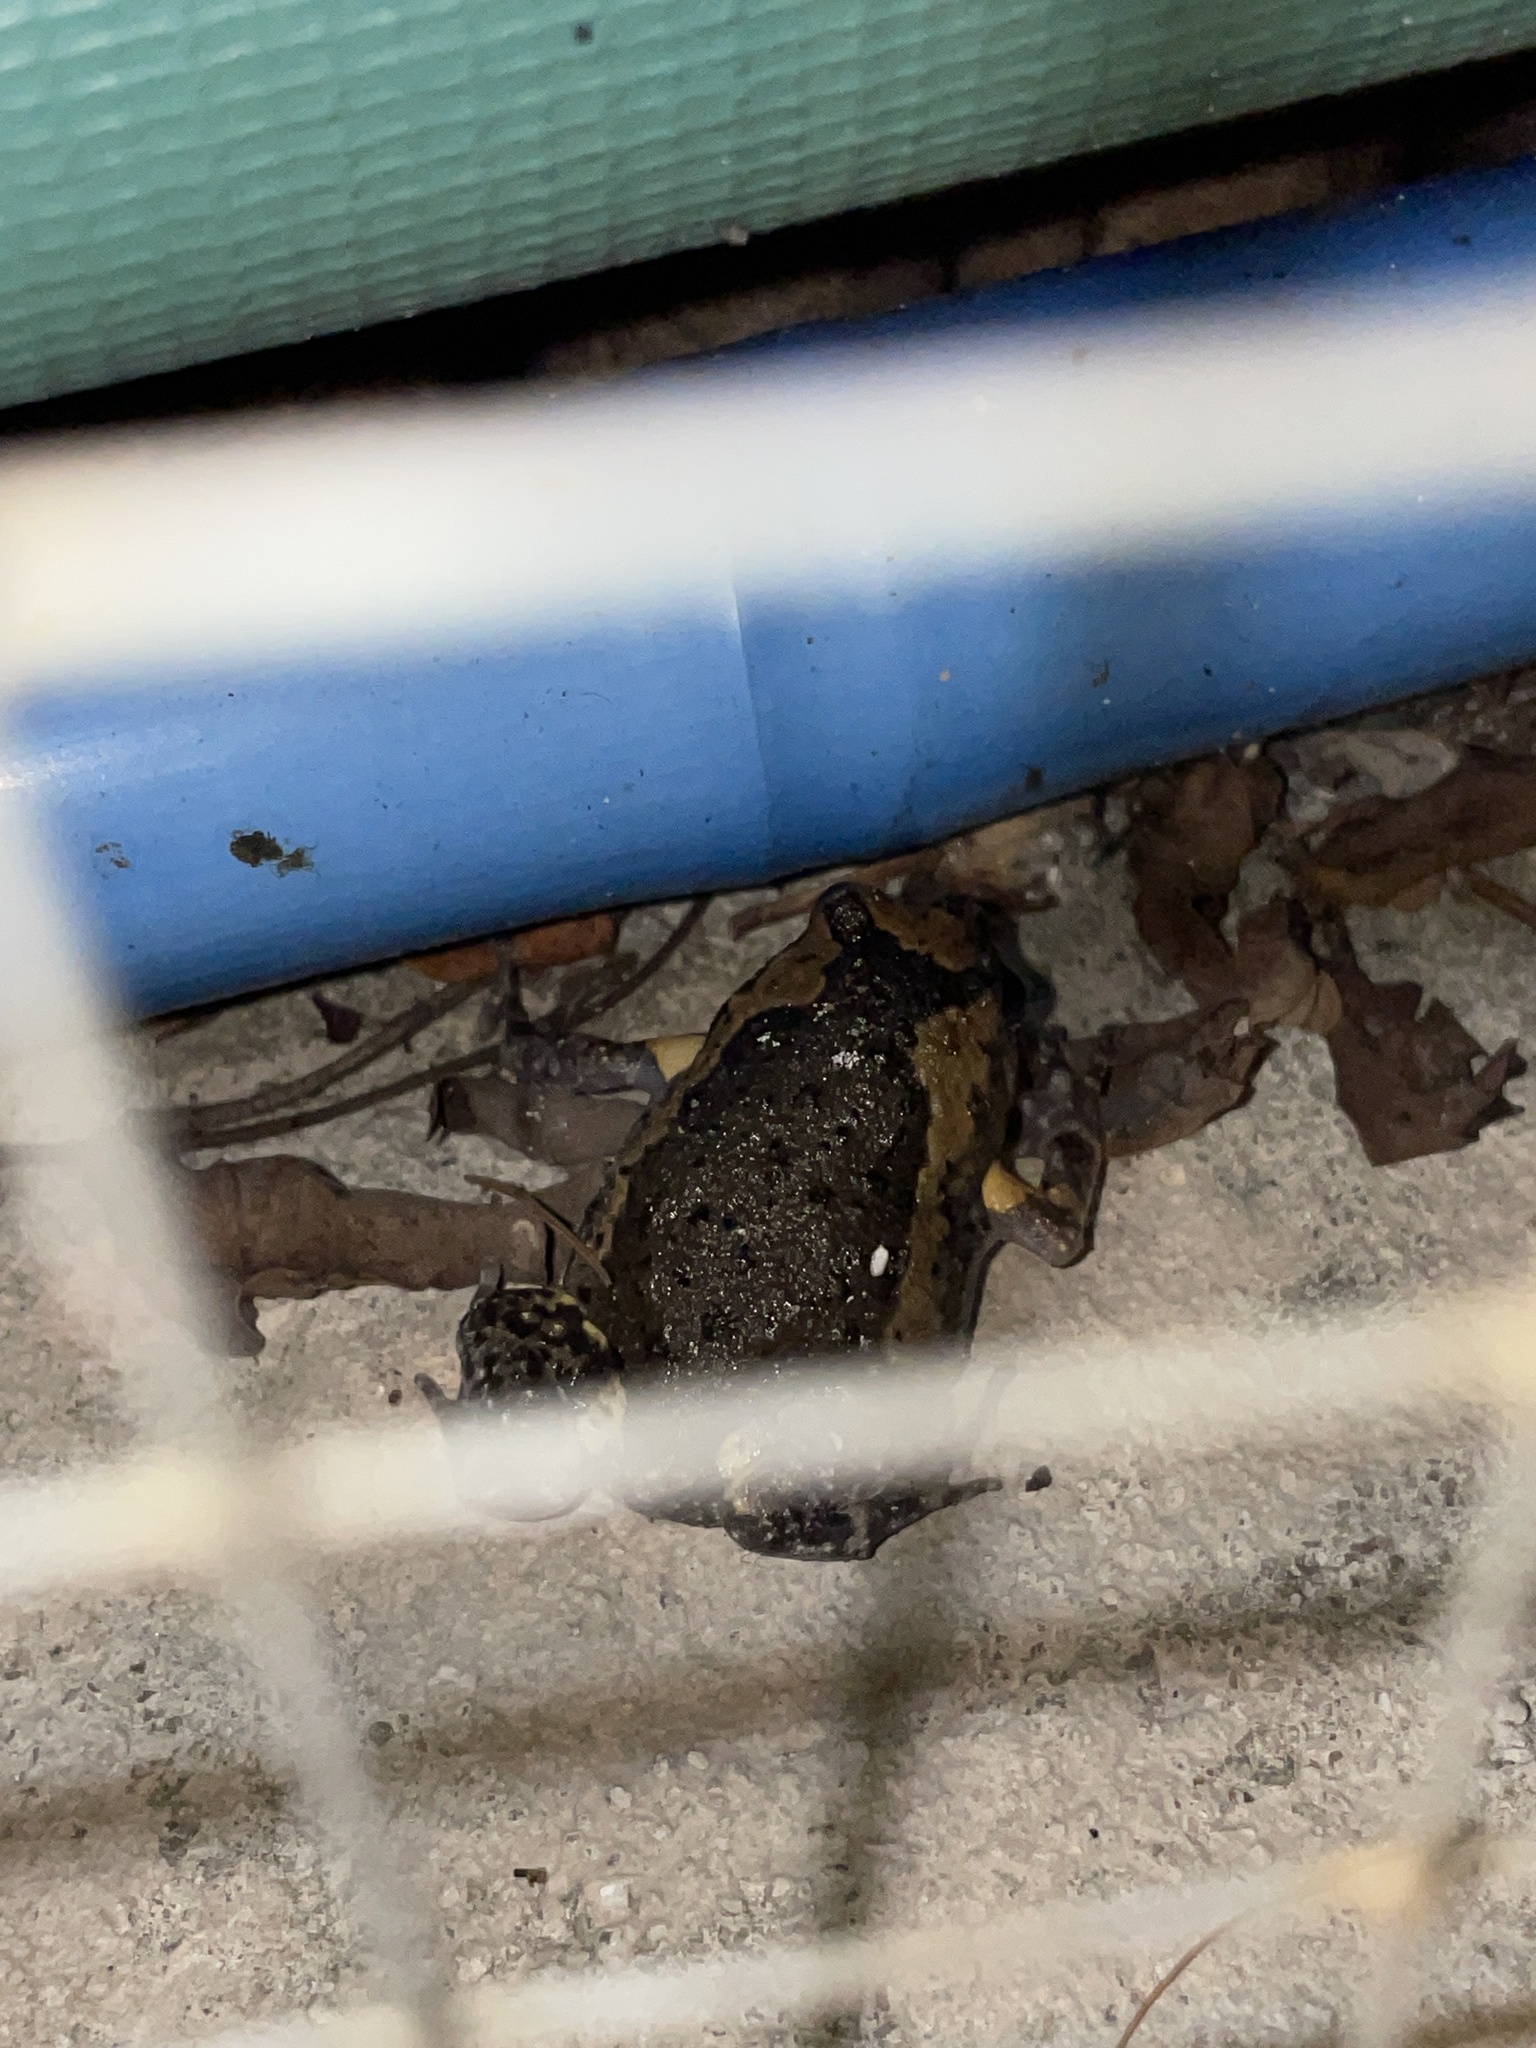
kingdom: Animalia
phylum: Chordata
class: Amphibia
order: Anura
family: Microhylidae
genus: Kaloula
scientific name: Kaloula pulchra
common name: Common,banded bullfrog
